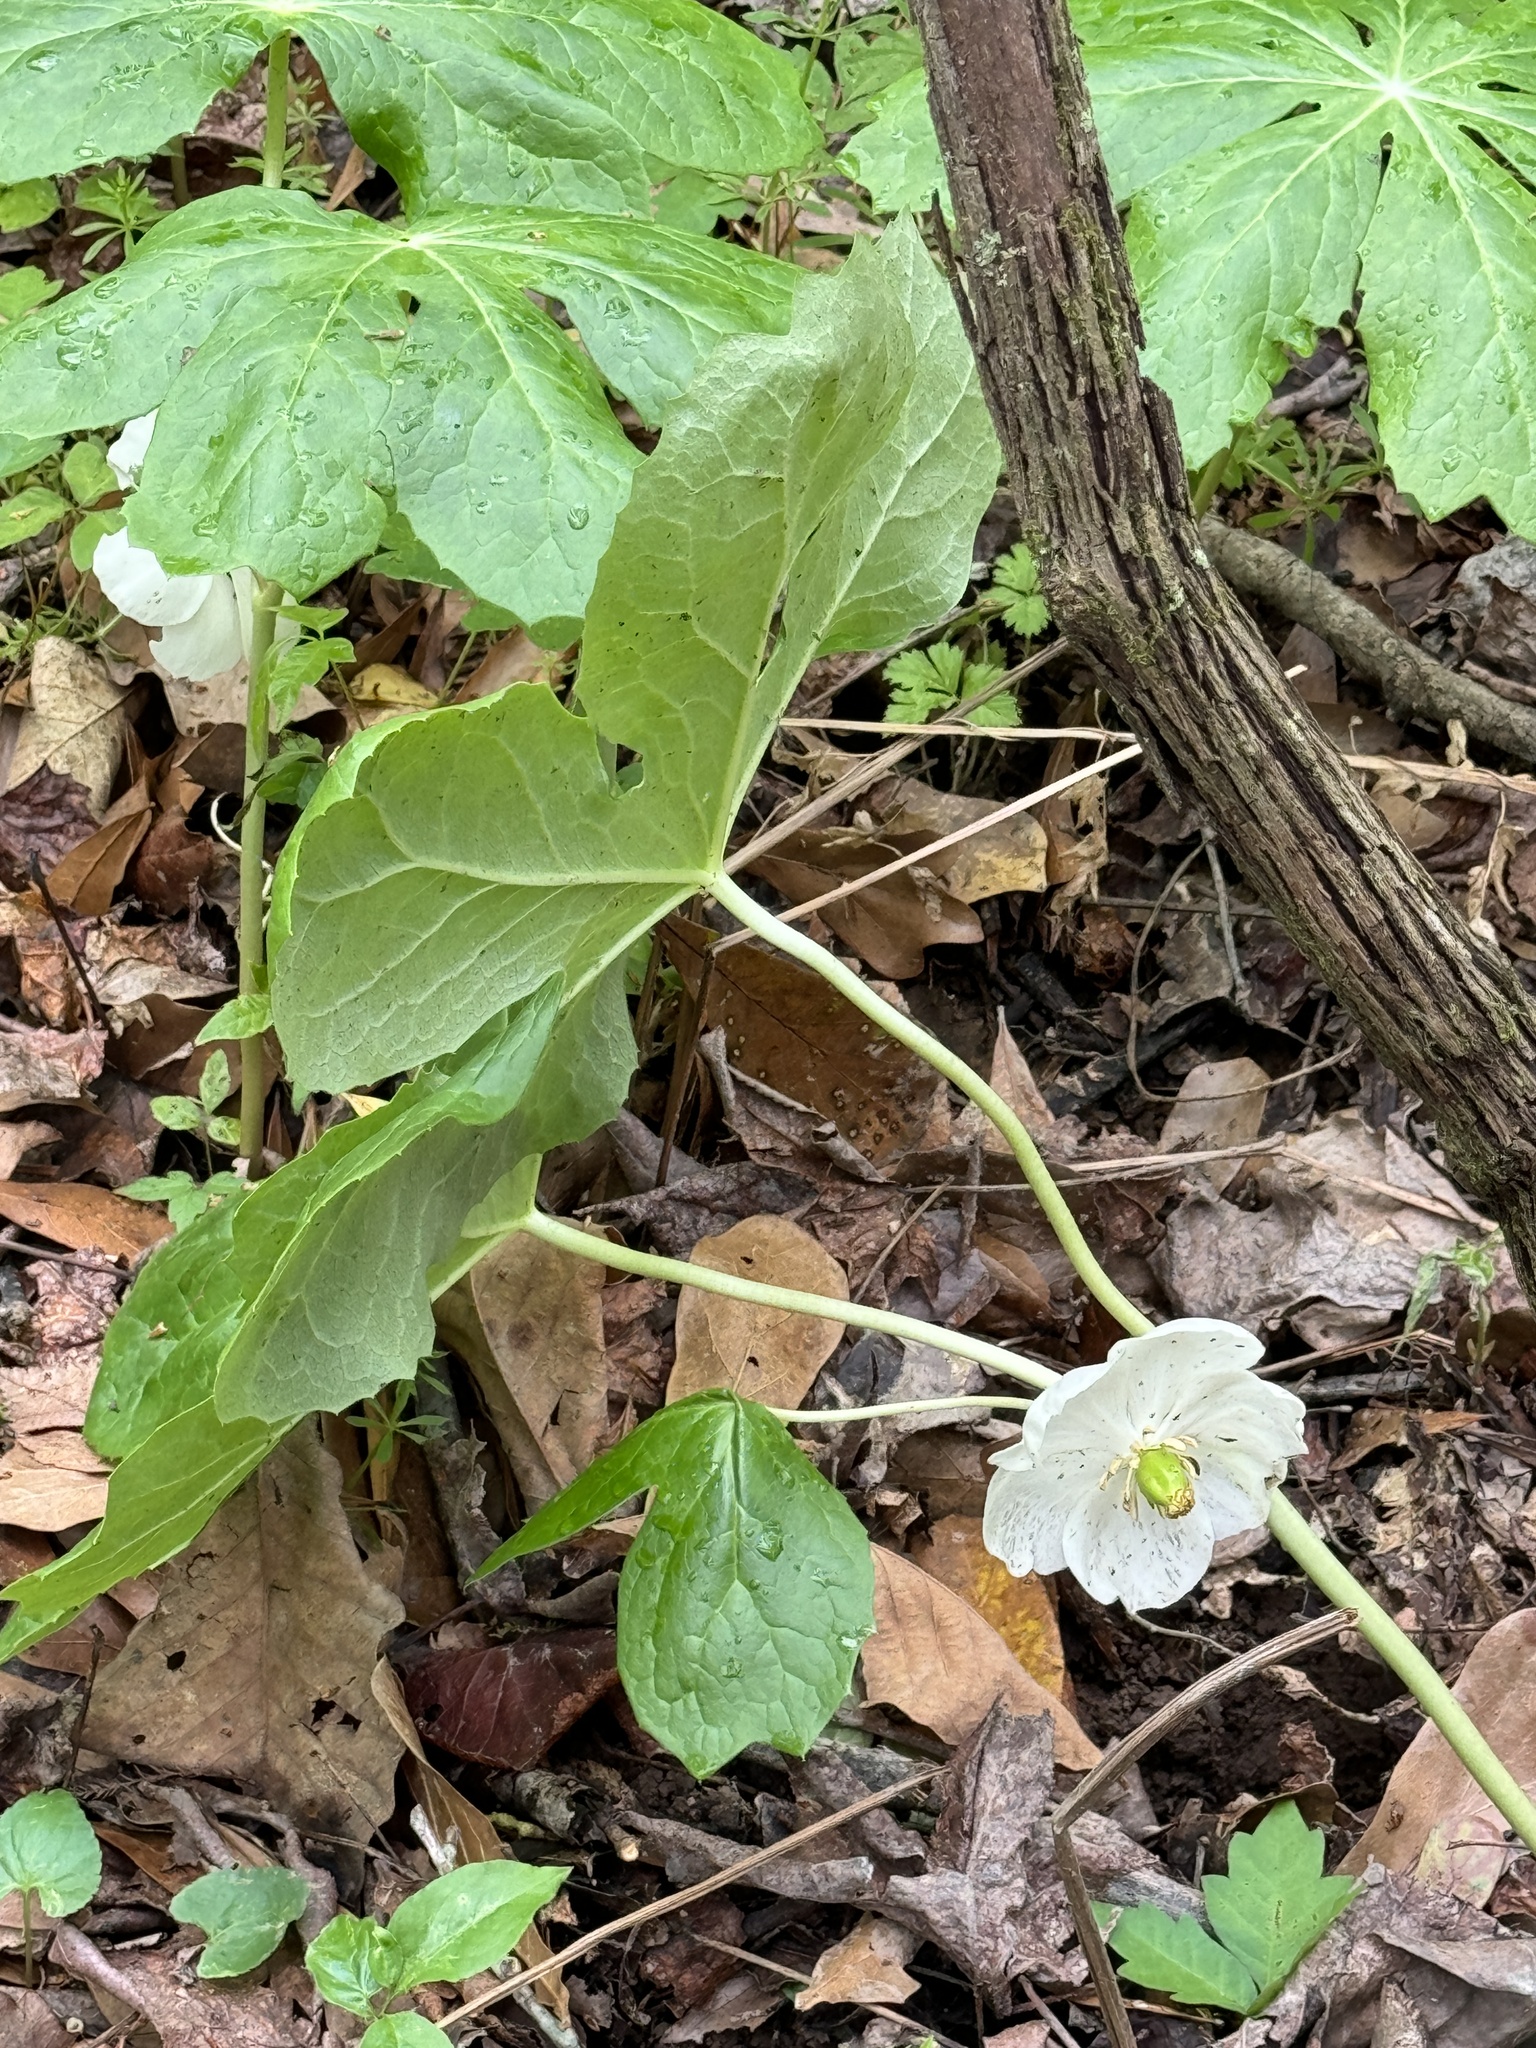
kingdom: Plantae
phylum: Tracheophyta
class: Magnoliopsida
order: Ranunculales
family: Berberidaceae
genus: Podophyllum
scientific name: Podophyllum peltatum
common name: Wild mandrake
